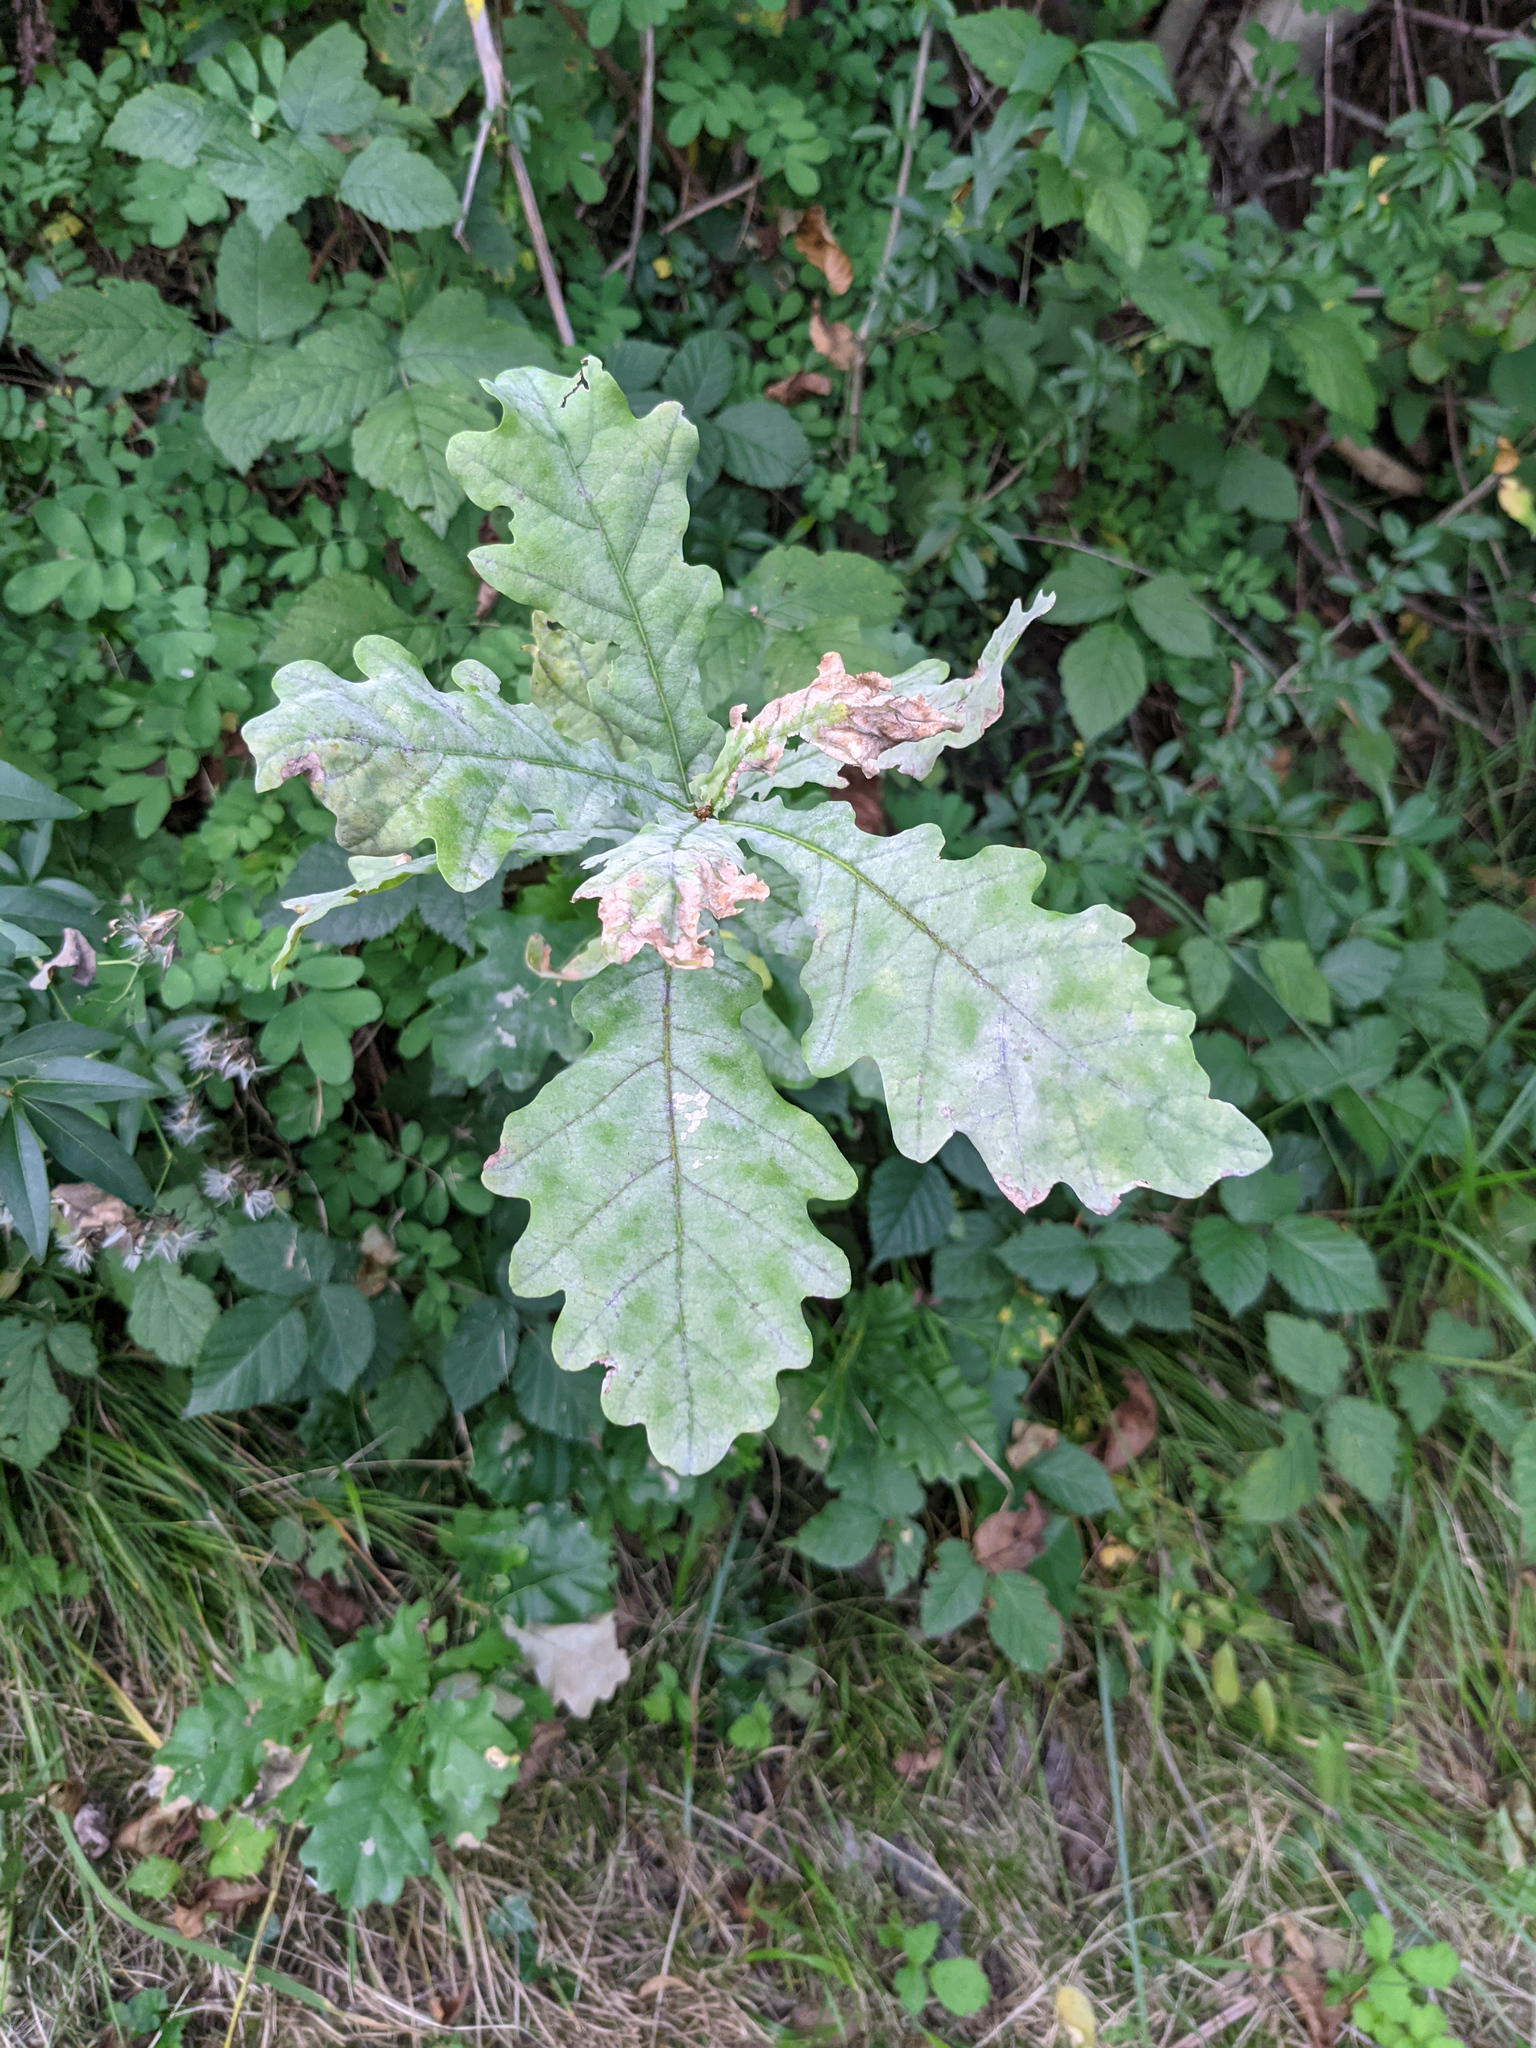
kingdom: Plantae
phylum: Tracheophyta
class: Magnoliopsida
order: Fagales
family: Fagaceae
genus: Quercus
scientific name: Quercus robur
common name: Pedunculate oak
